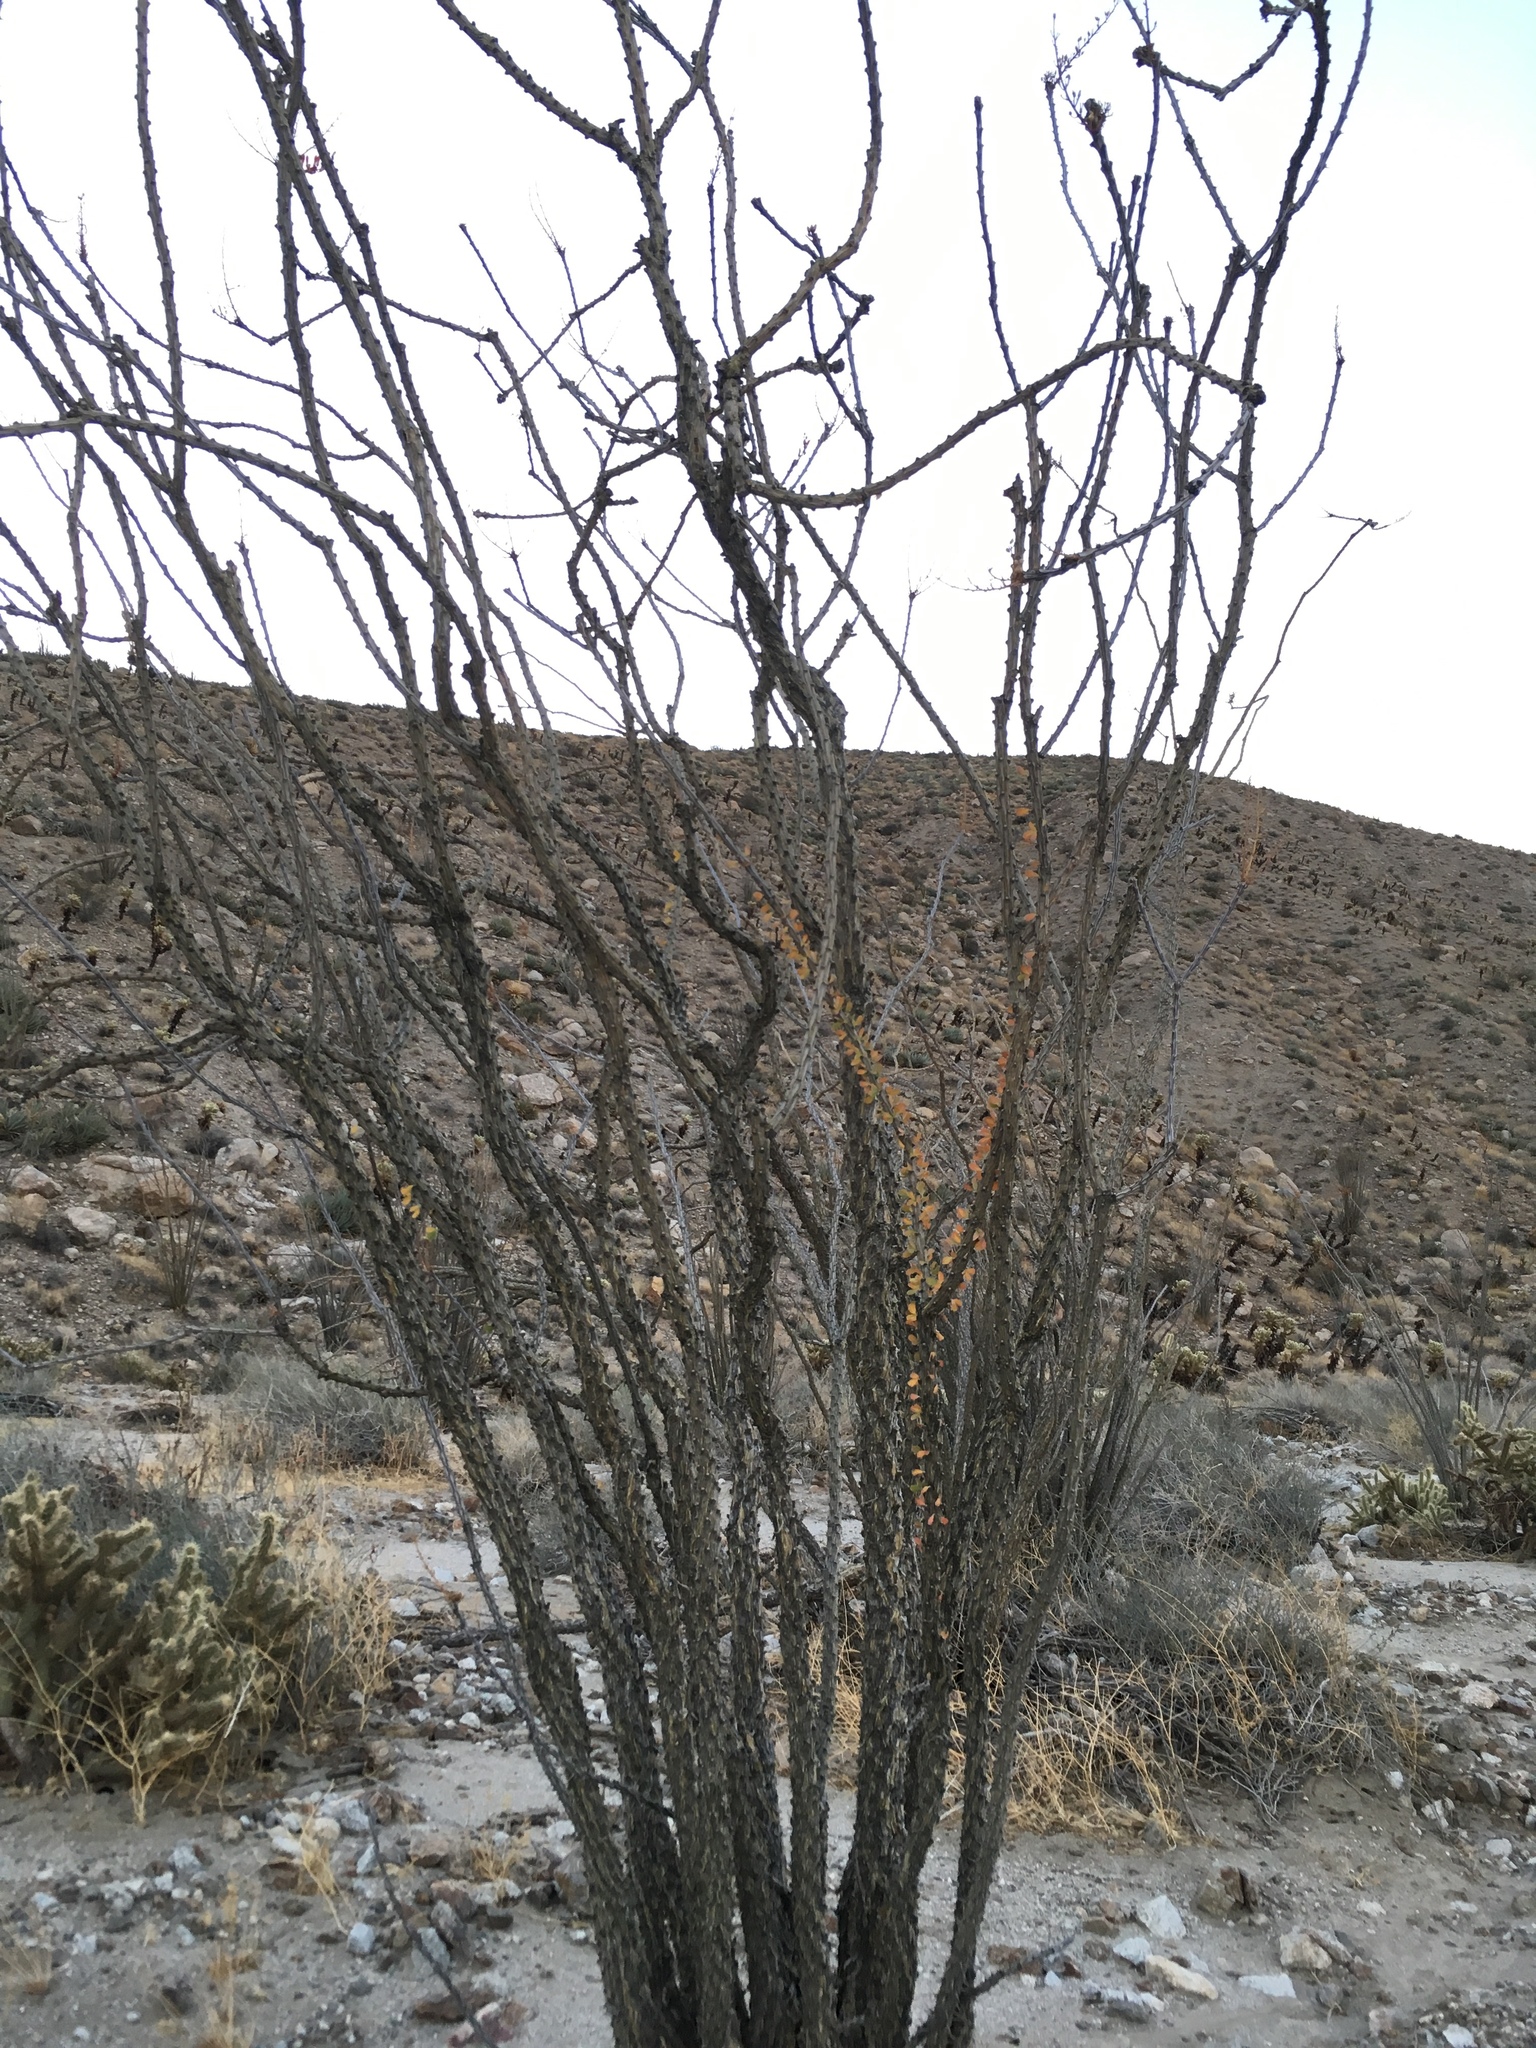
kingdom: Plantae
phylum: Tracheophyta
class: Magnoliopsida
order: Ericales
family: Fouquieriaceae
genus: Fouquieria
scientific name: Fouquieria splendens
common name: Vine-cactus
